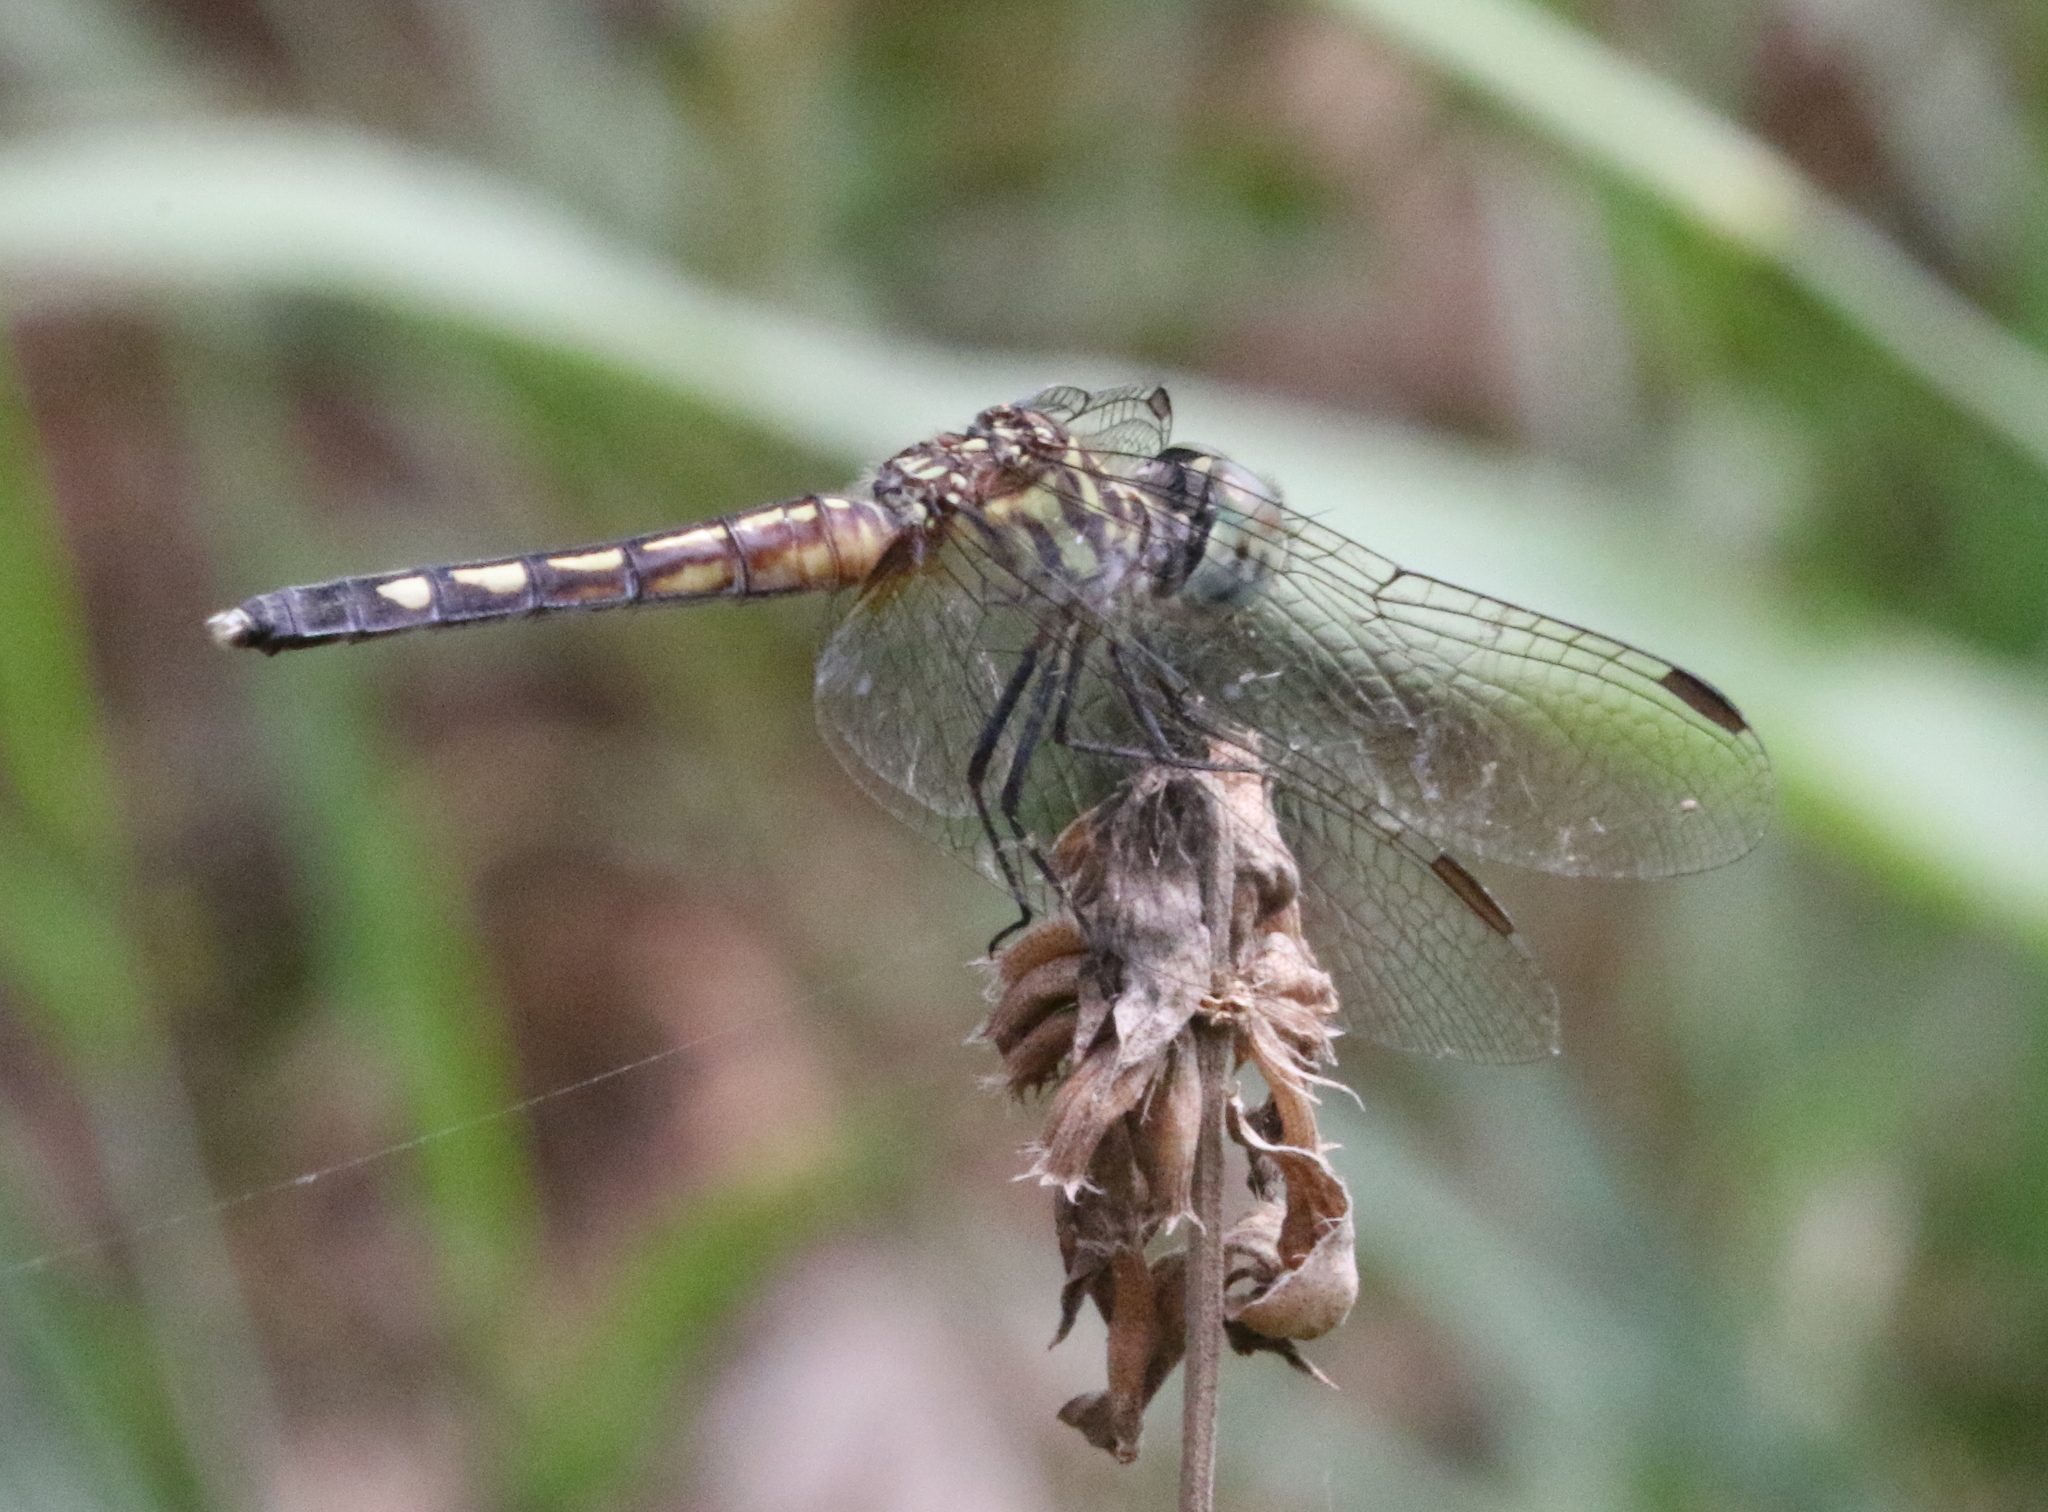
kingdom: Animalia
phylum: Arthropoda
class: Insecta
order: Odonata
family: Libellulidae
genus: Pachydiplax
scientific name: Pachydiplax longipennis
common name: Blue dasher
